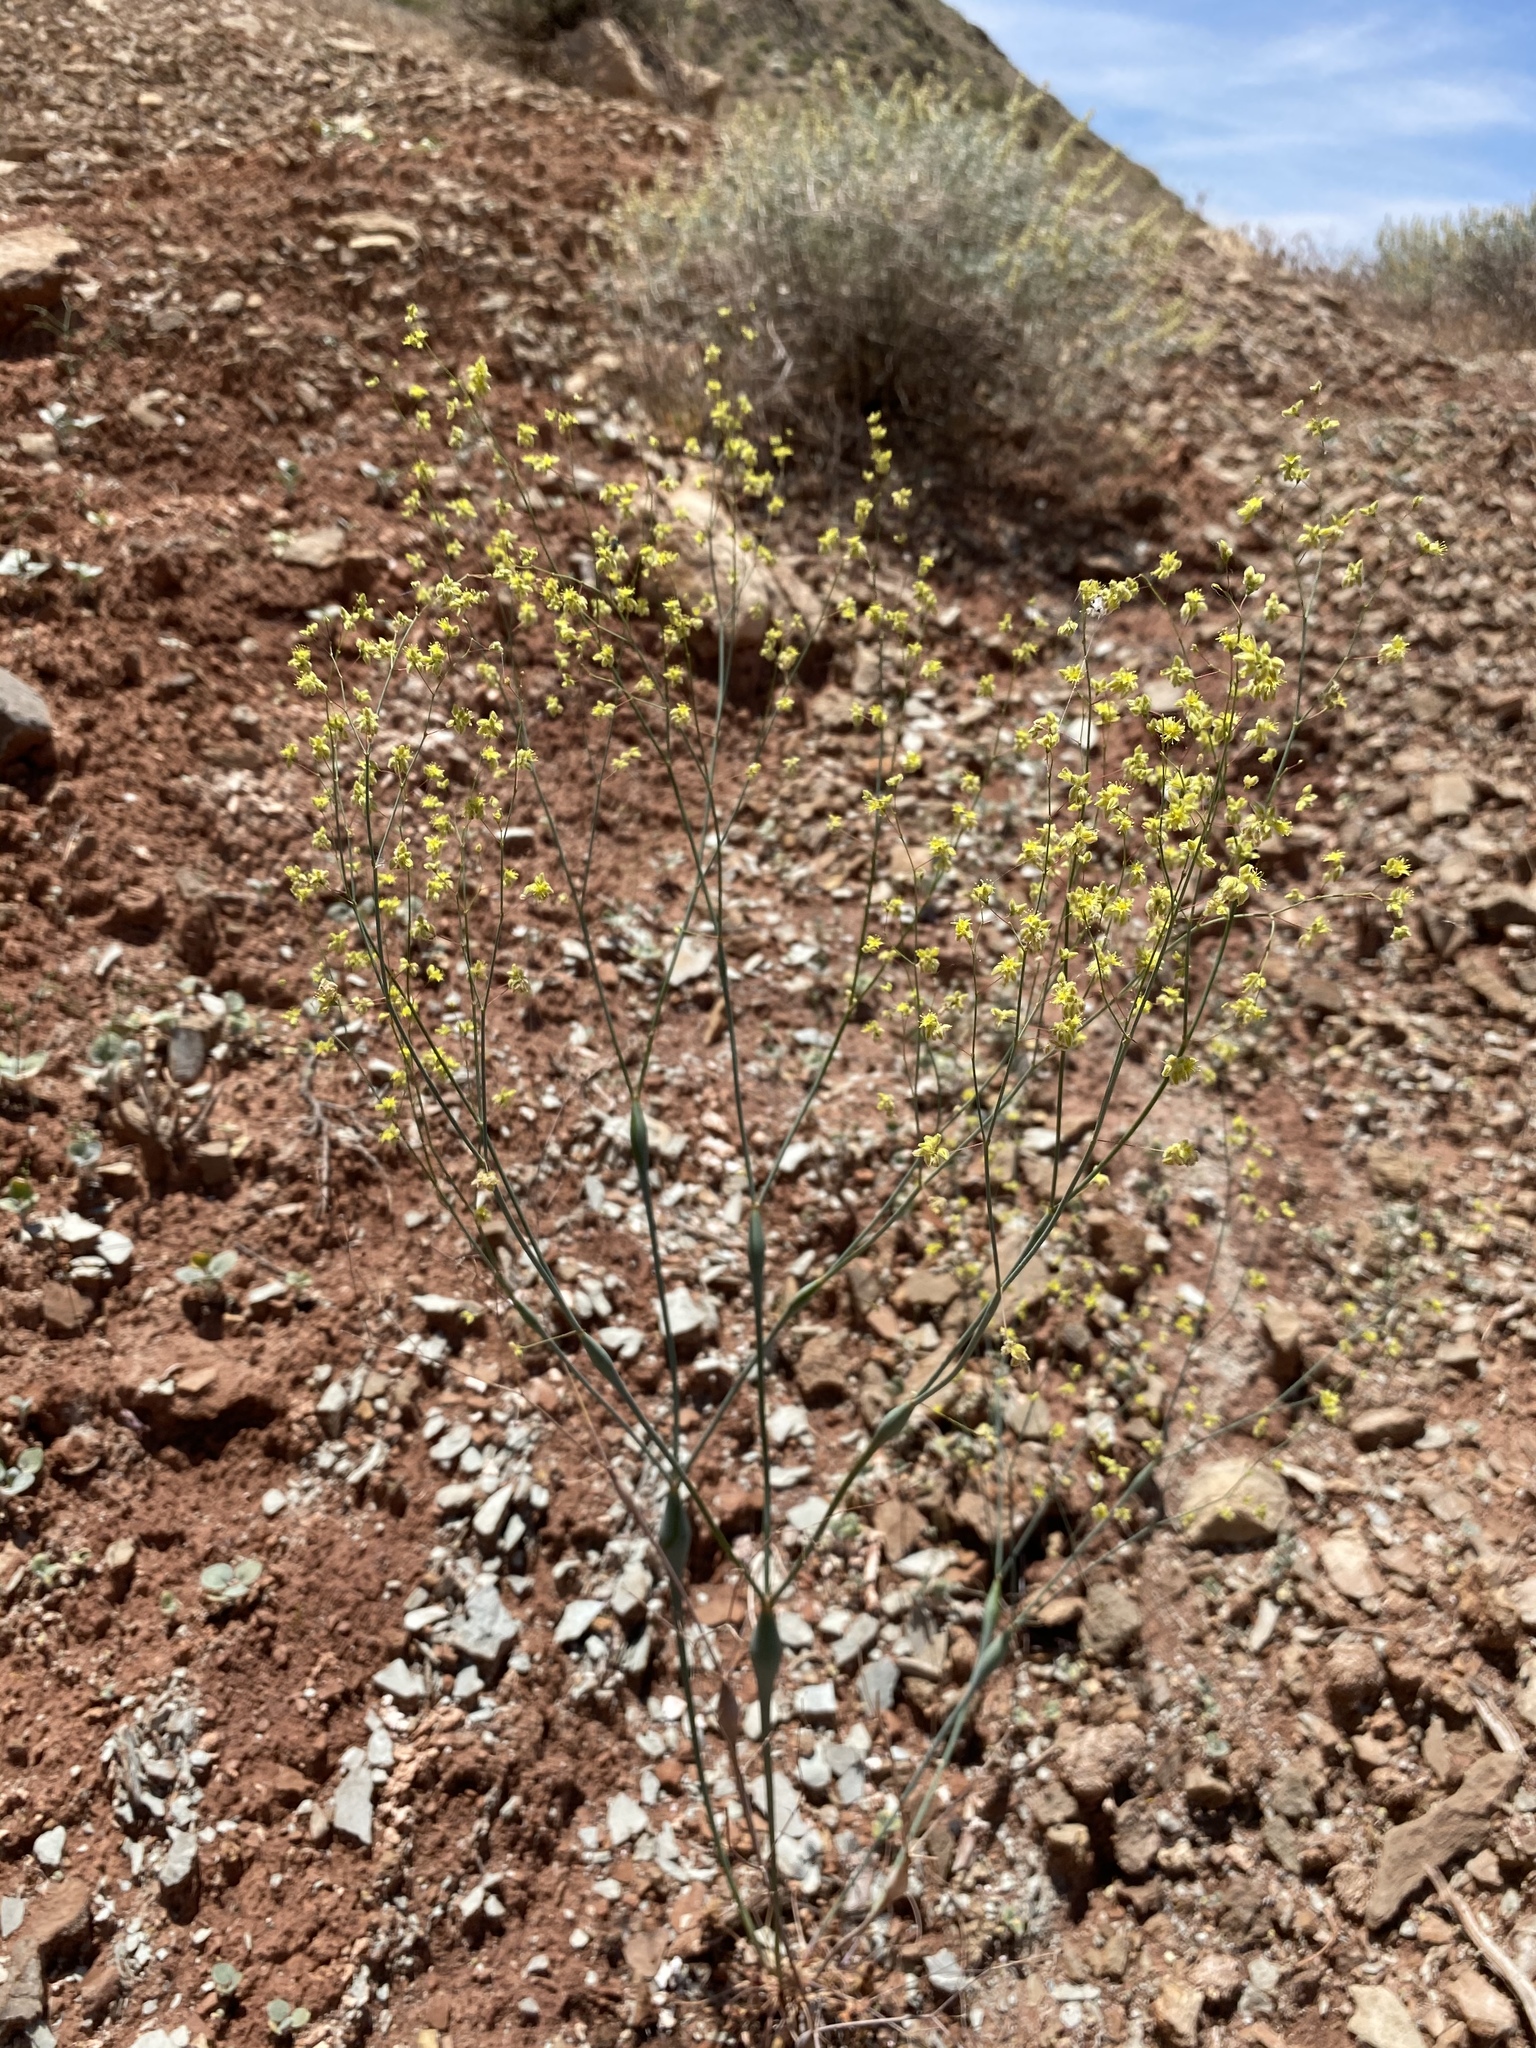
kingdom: Plantae
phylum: Tracheophyta
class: Magnoliopsida
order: Caryophyllales
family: Polygonaceae
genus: Eriogonum
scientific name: Eriogonum inflatum
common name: Desert trumpet
